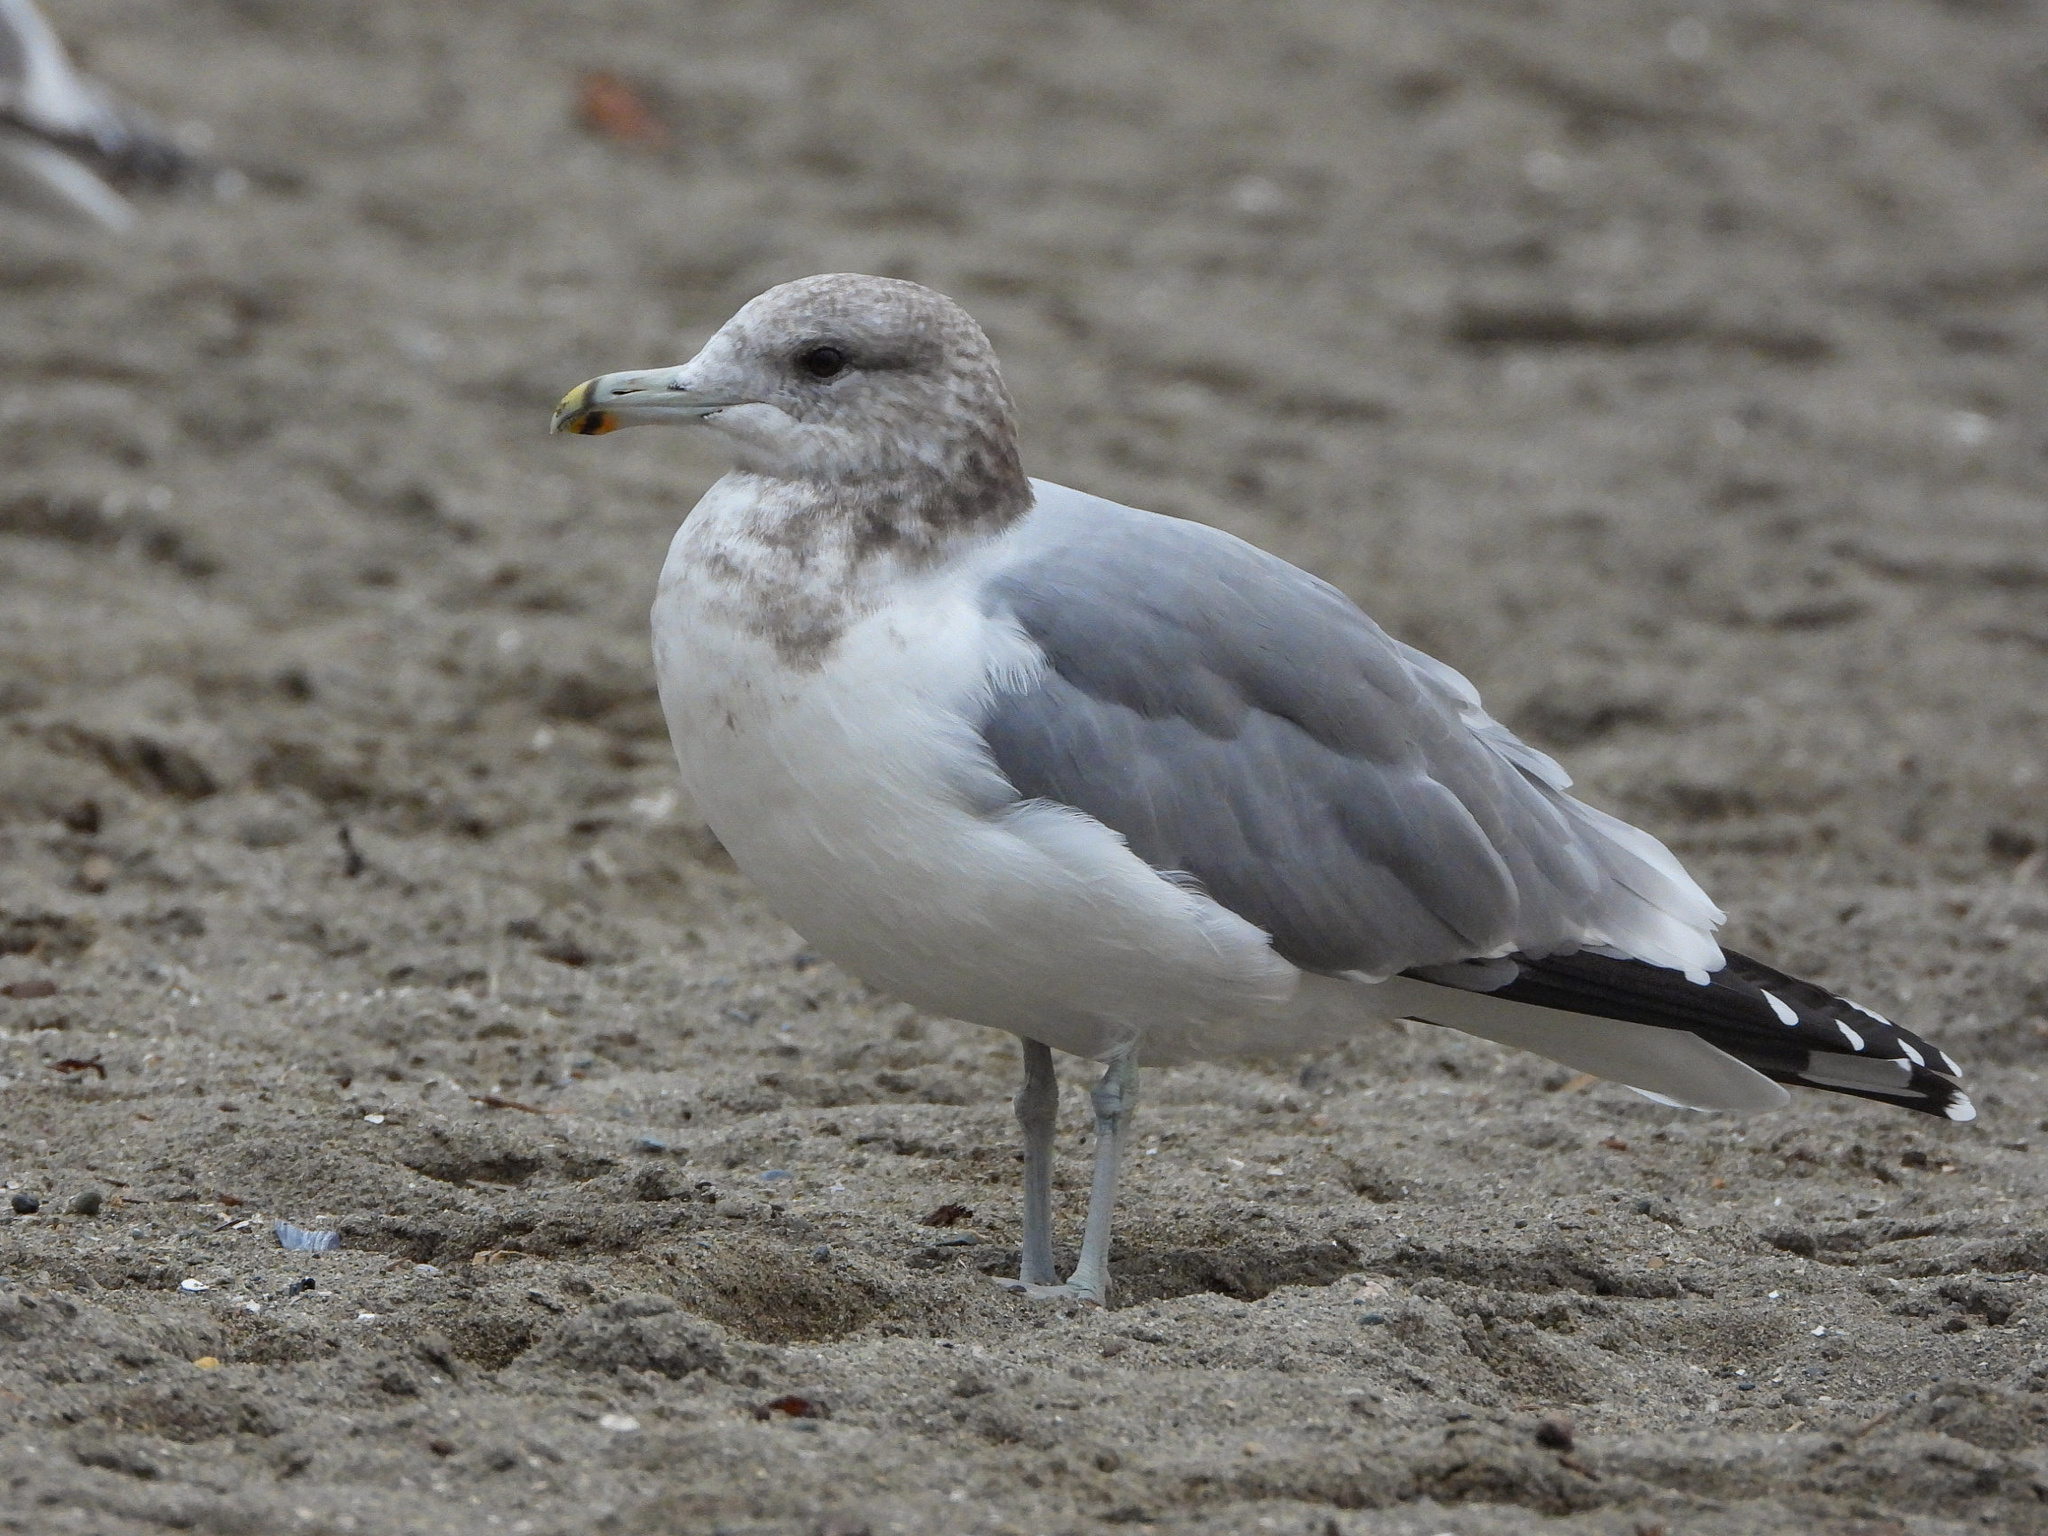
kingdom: Animalia
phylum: Chordata
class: Aves
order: Charadriiformes
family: Laridae
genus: Larus
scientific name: Larus californicus
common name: California gull
